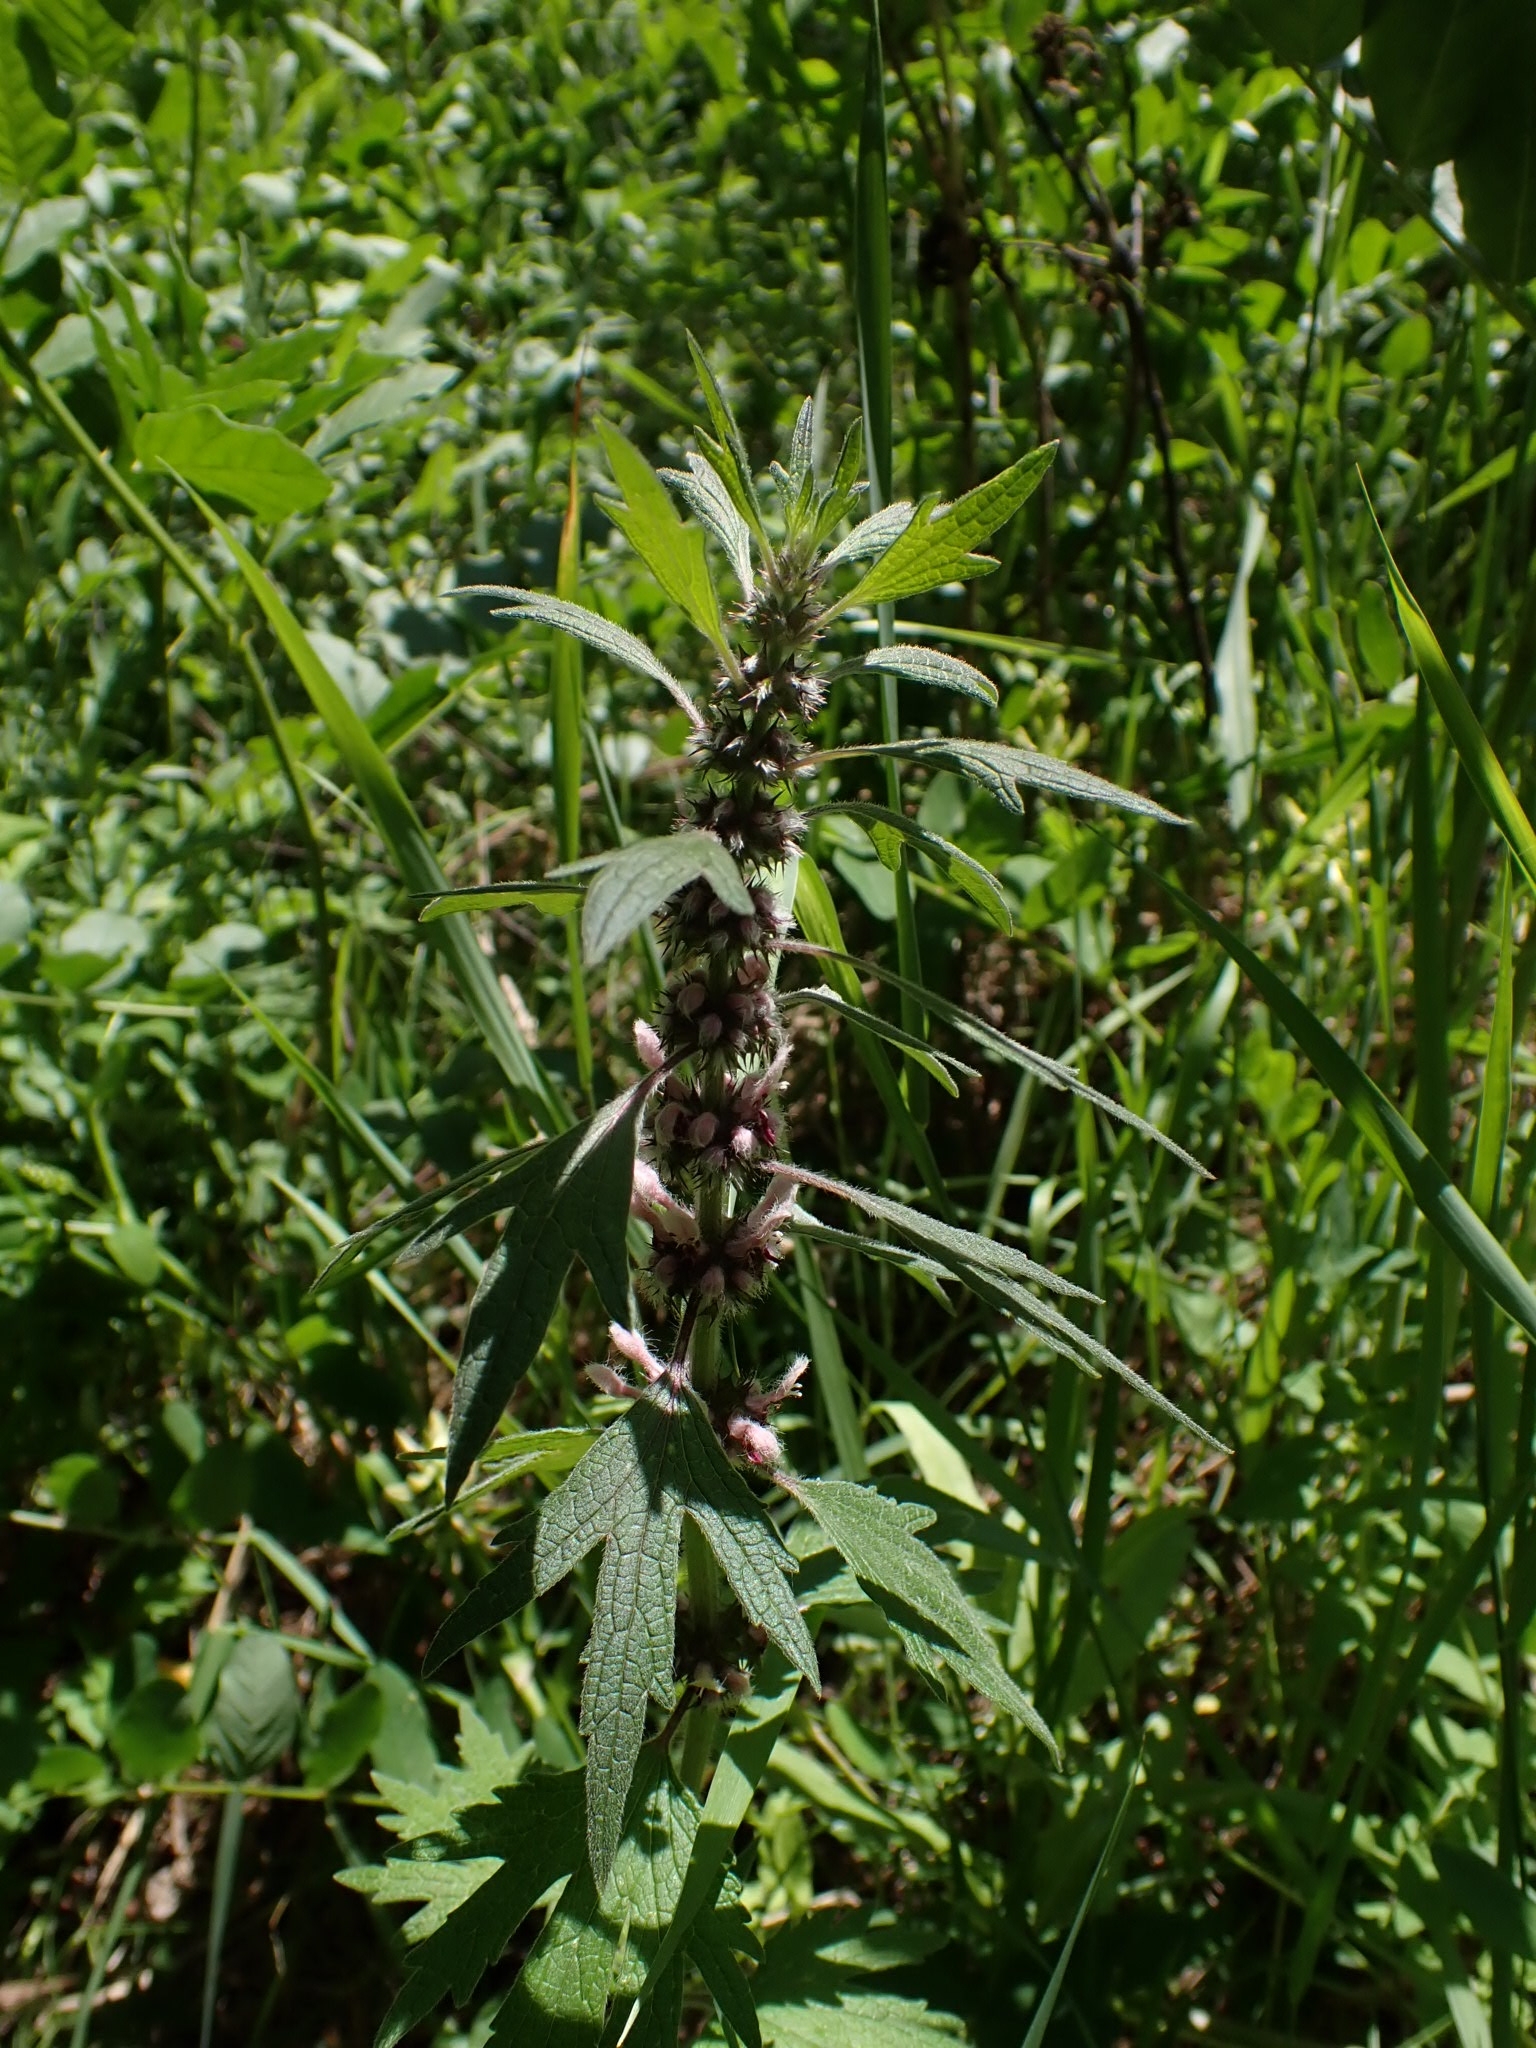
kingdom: Plantae
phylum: Tracheophyta
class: Magnoliopsida
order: Lamiales
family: Lamiaceae
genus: Leonurus
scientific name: Leonurus quinquelobatus
